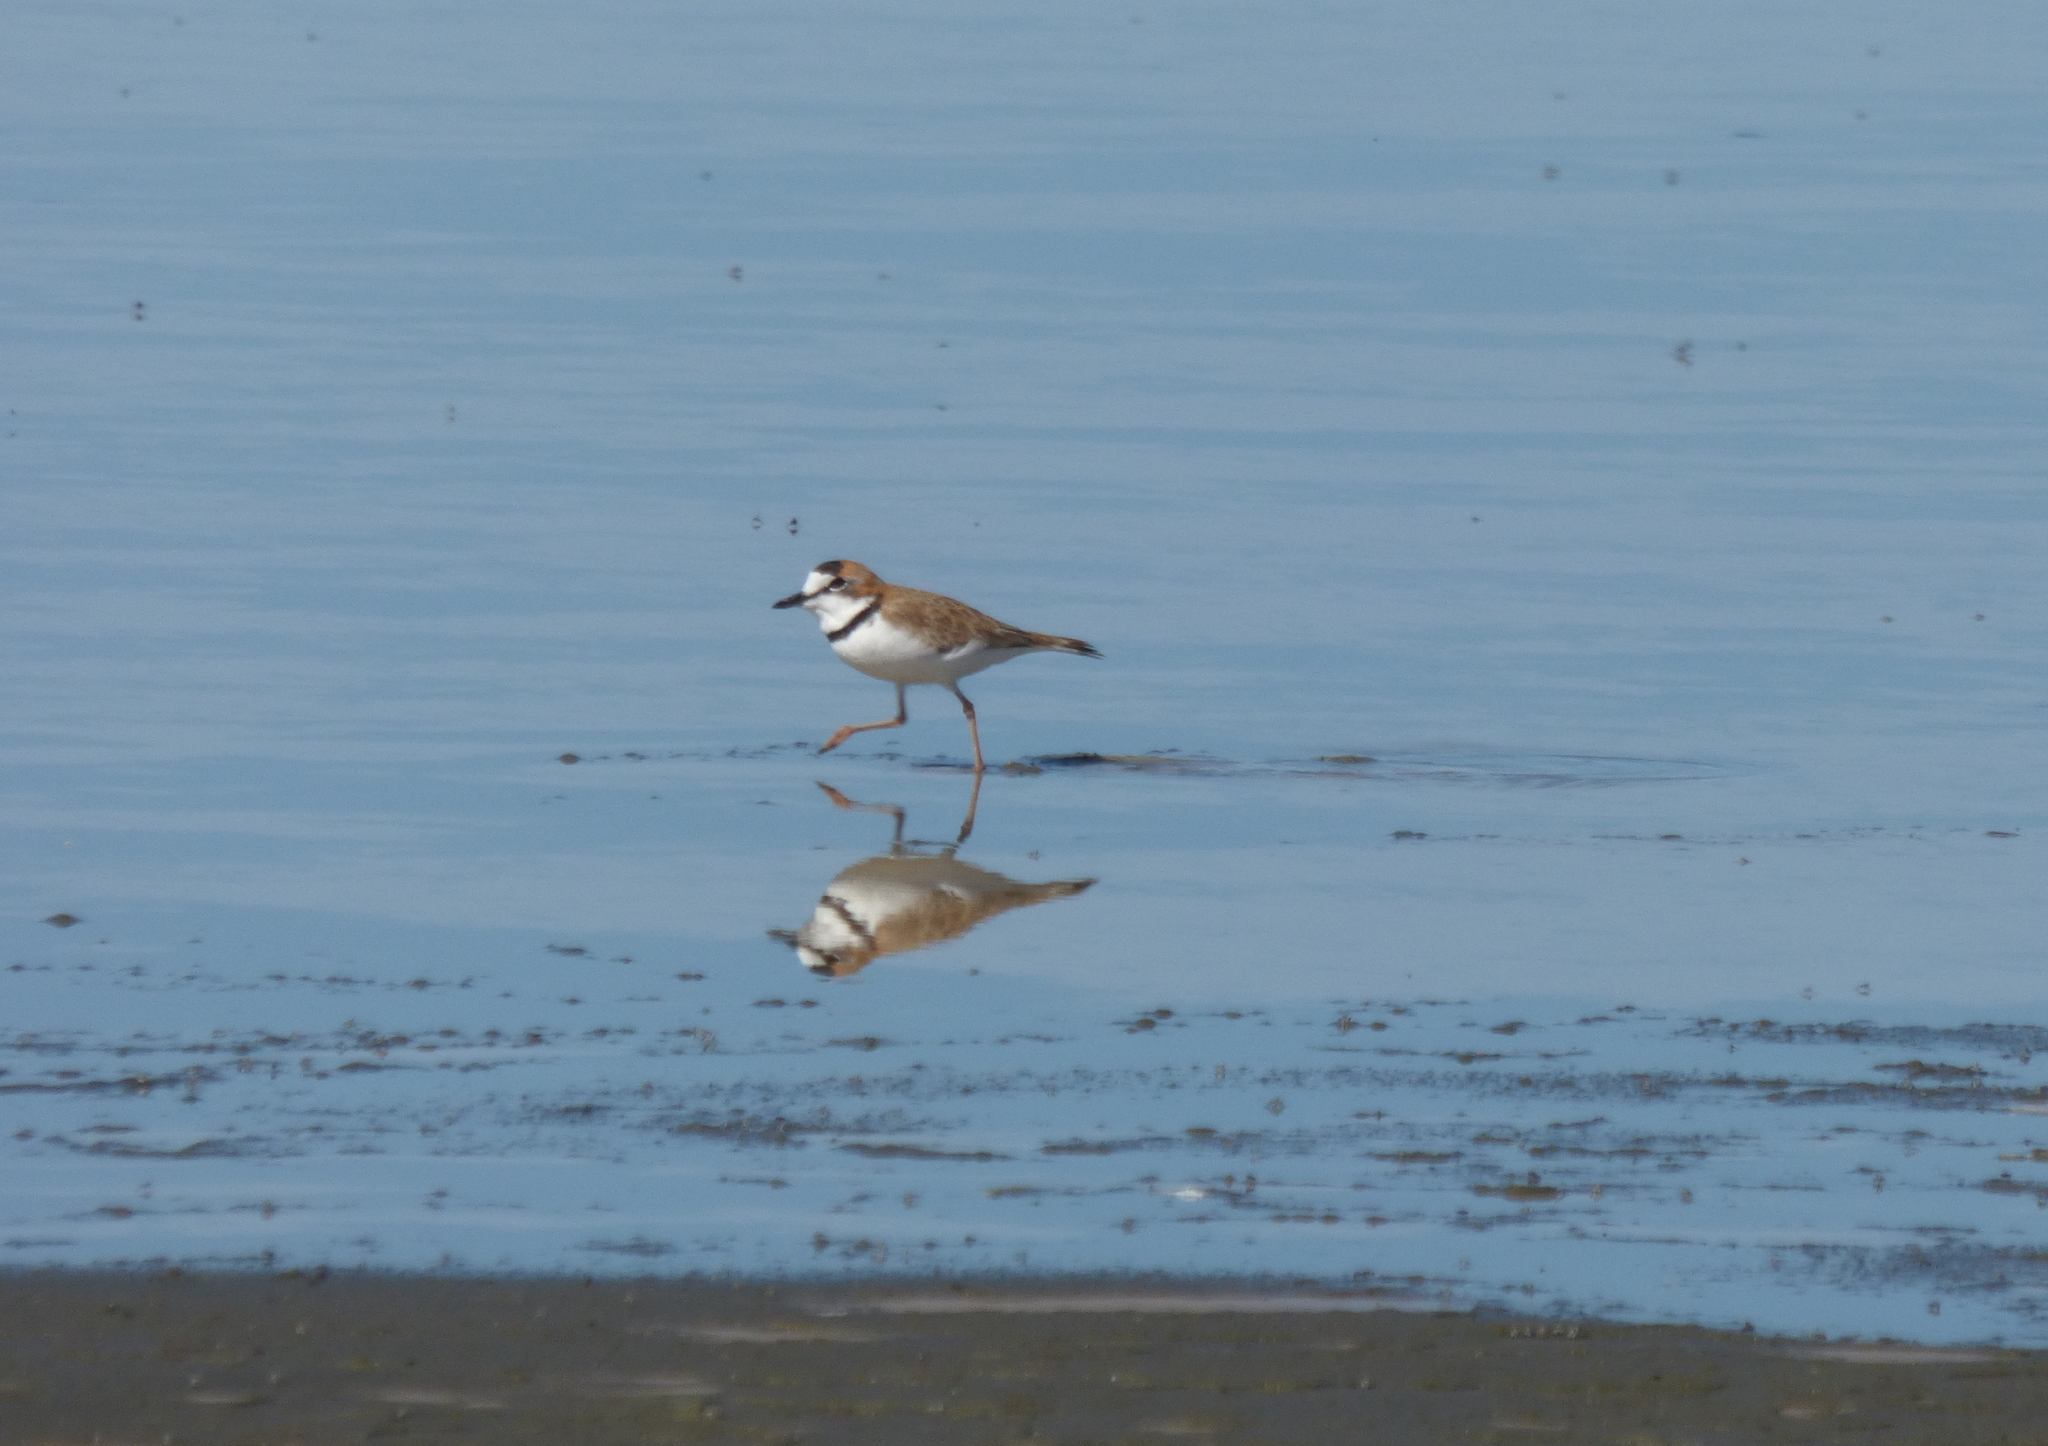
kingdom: Animalia
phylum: Chordata
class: Aves
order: Charadriiformes
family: Charadriidae
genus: Anarhynchus
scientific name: Anarhynchus
